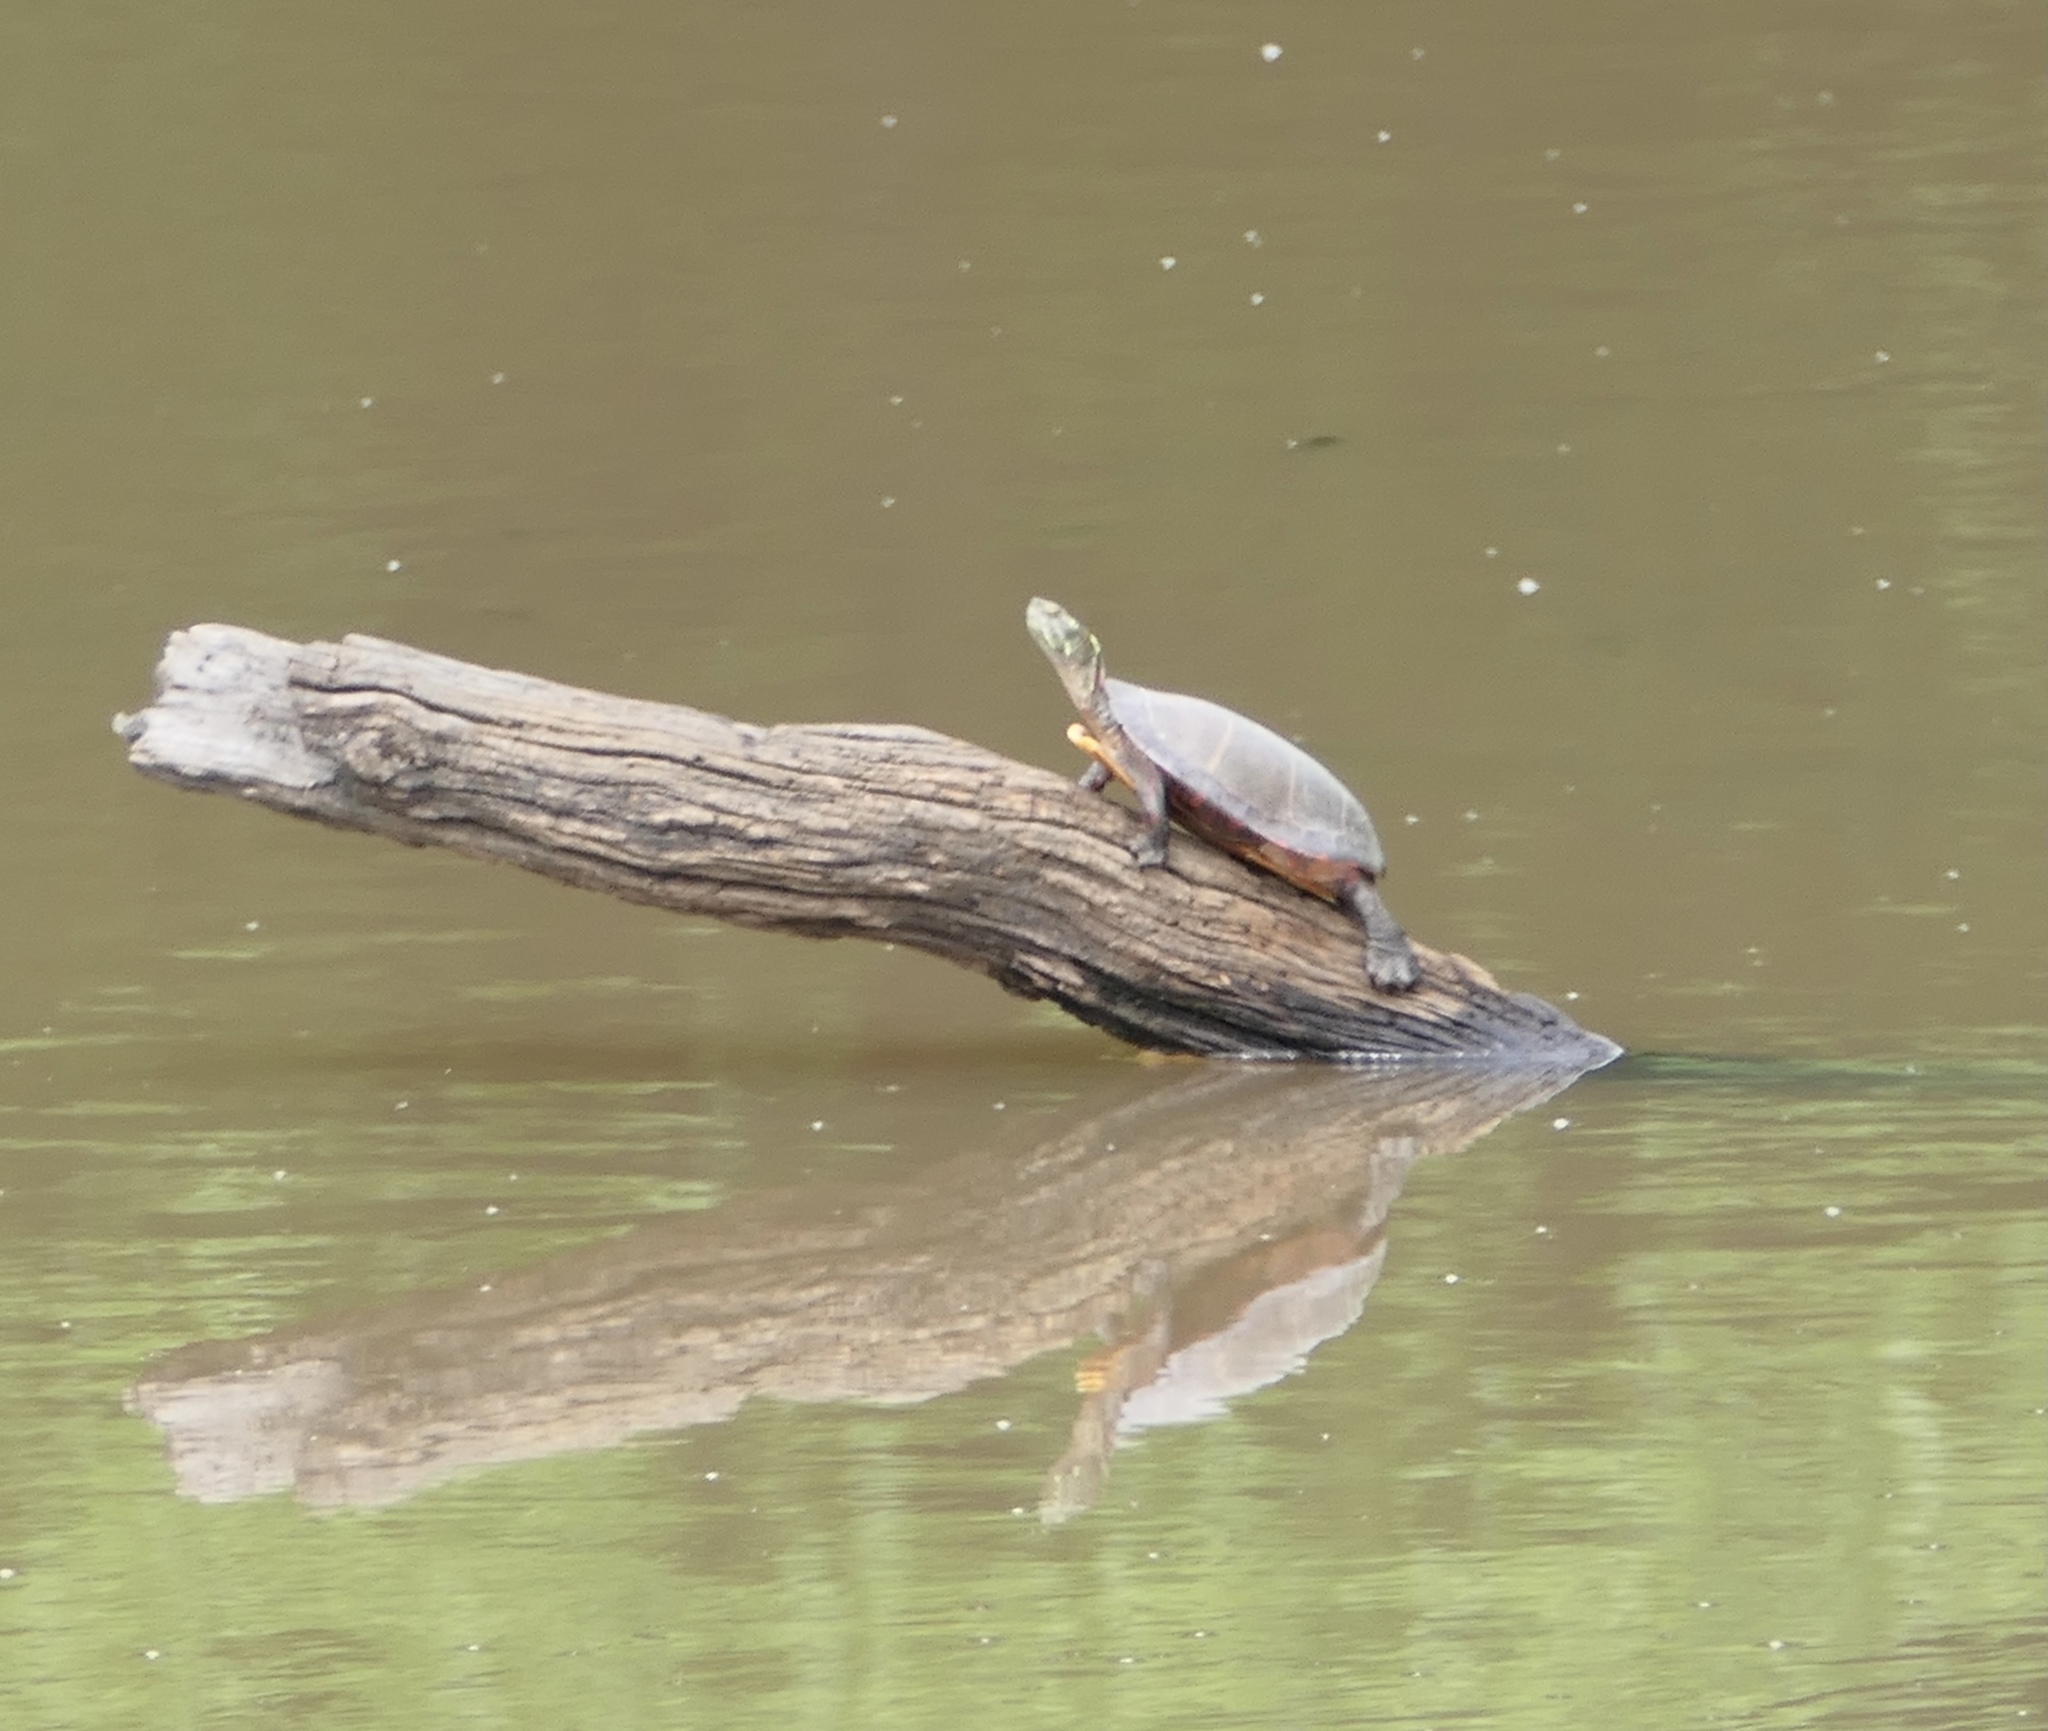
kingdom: Animalia
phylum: Chordata
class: Testudines
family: Emydidae
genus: Chrysemys
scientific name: Chrysemys picta
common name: Painted turtle
